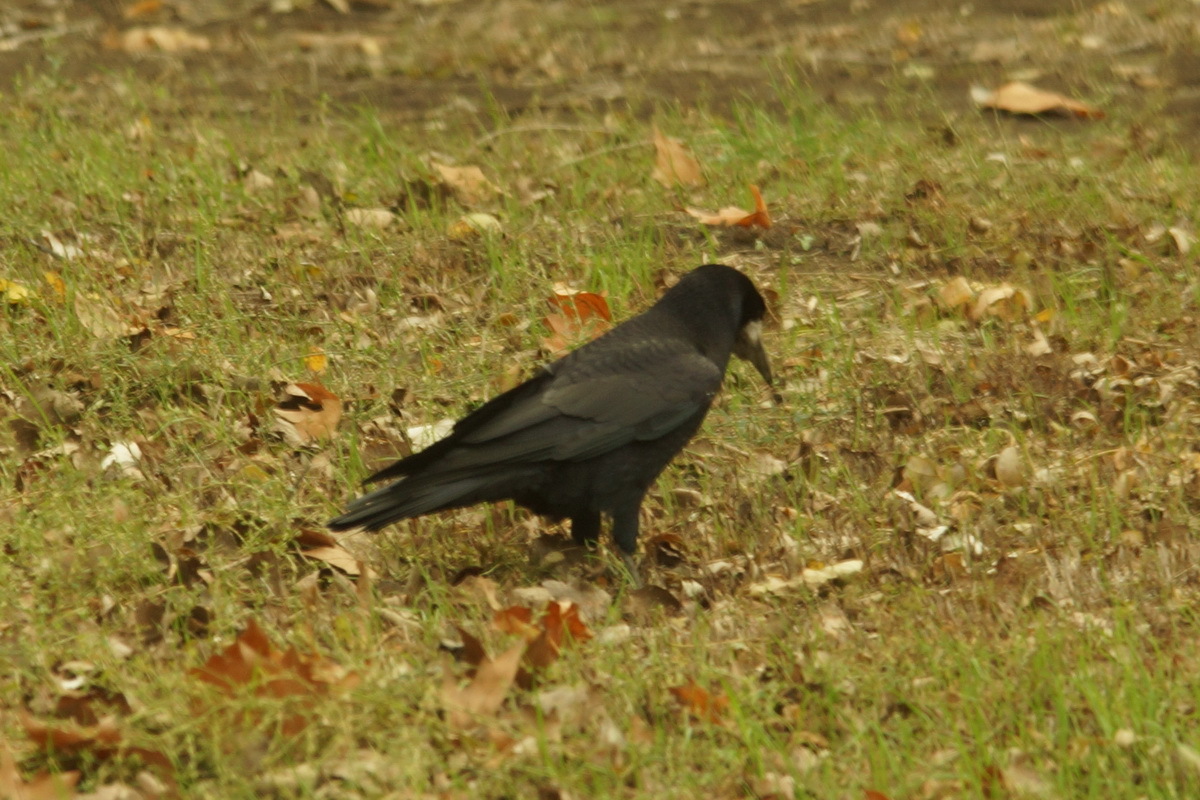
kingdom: Animalia
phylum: Chordata
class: Aves
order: Passeriformes
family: Corvidae
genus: Corvus
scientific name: Corvus frugilegus
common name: Rook
